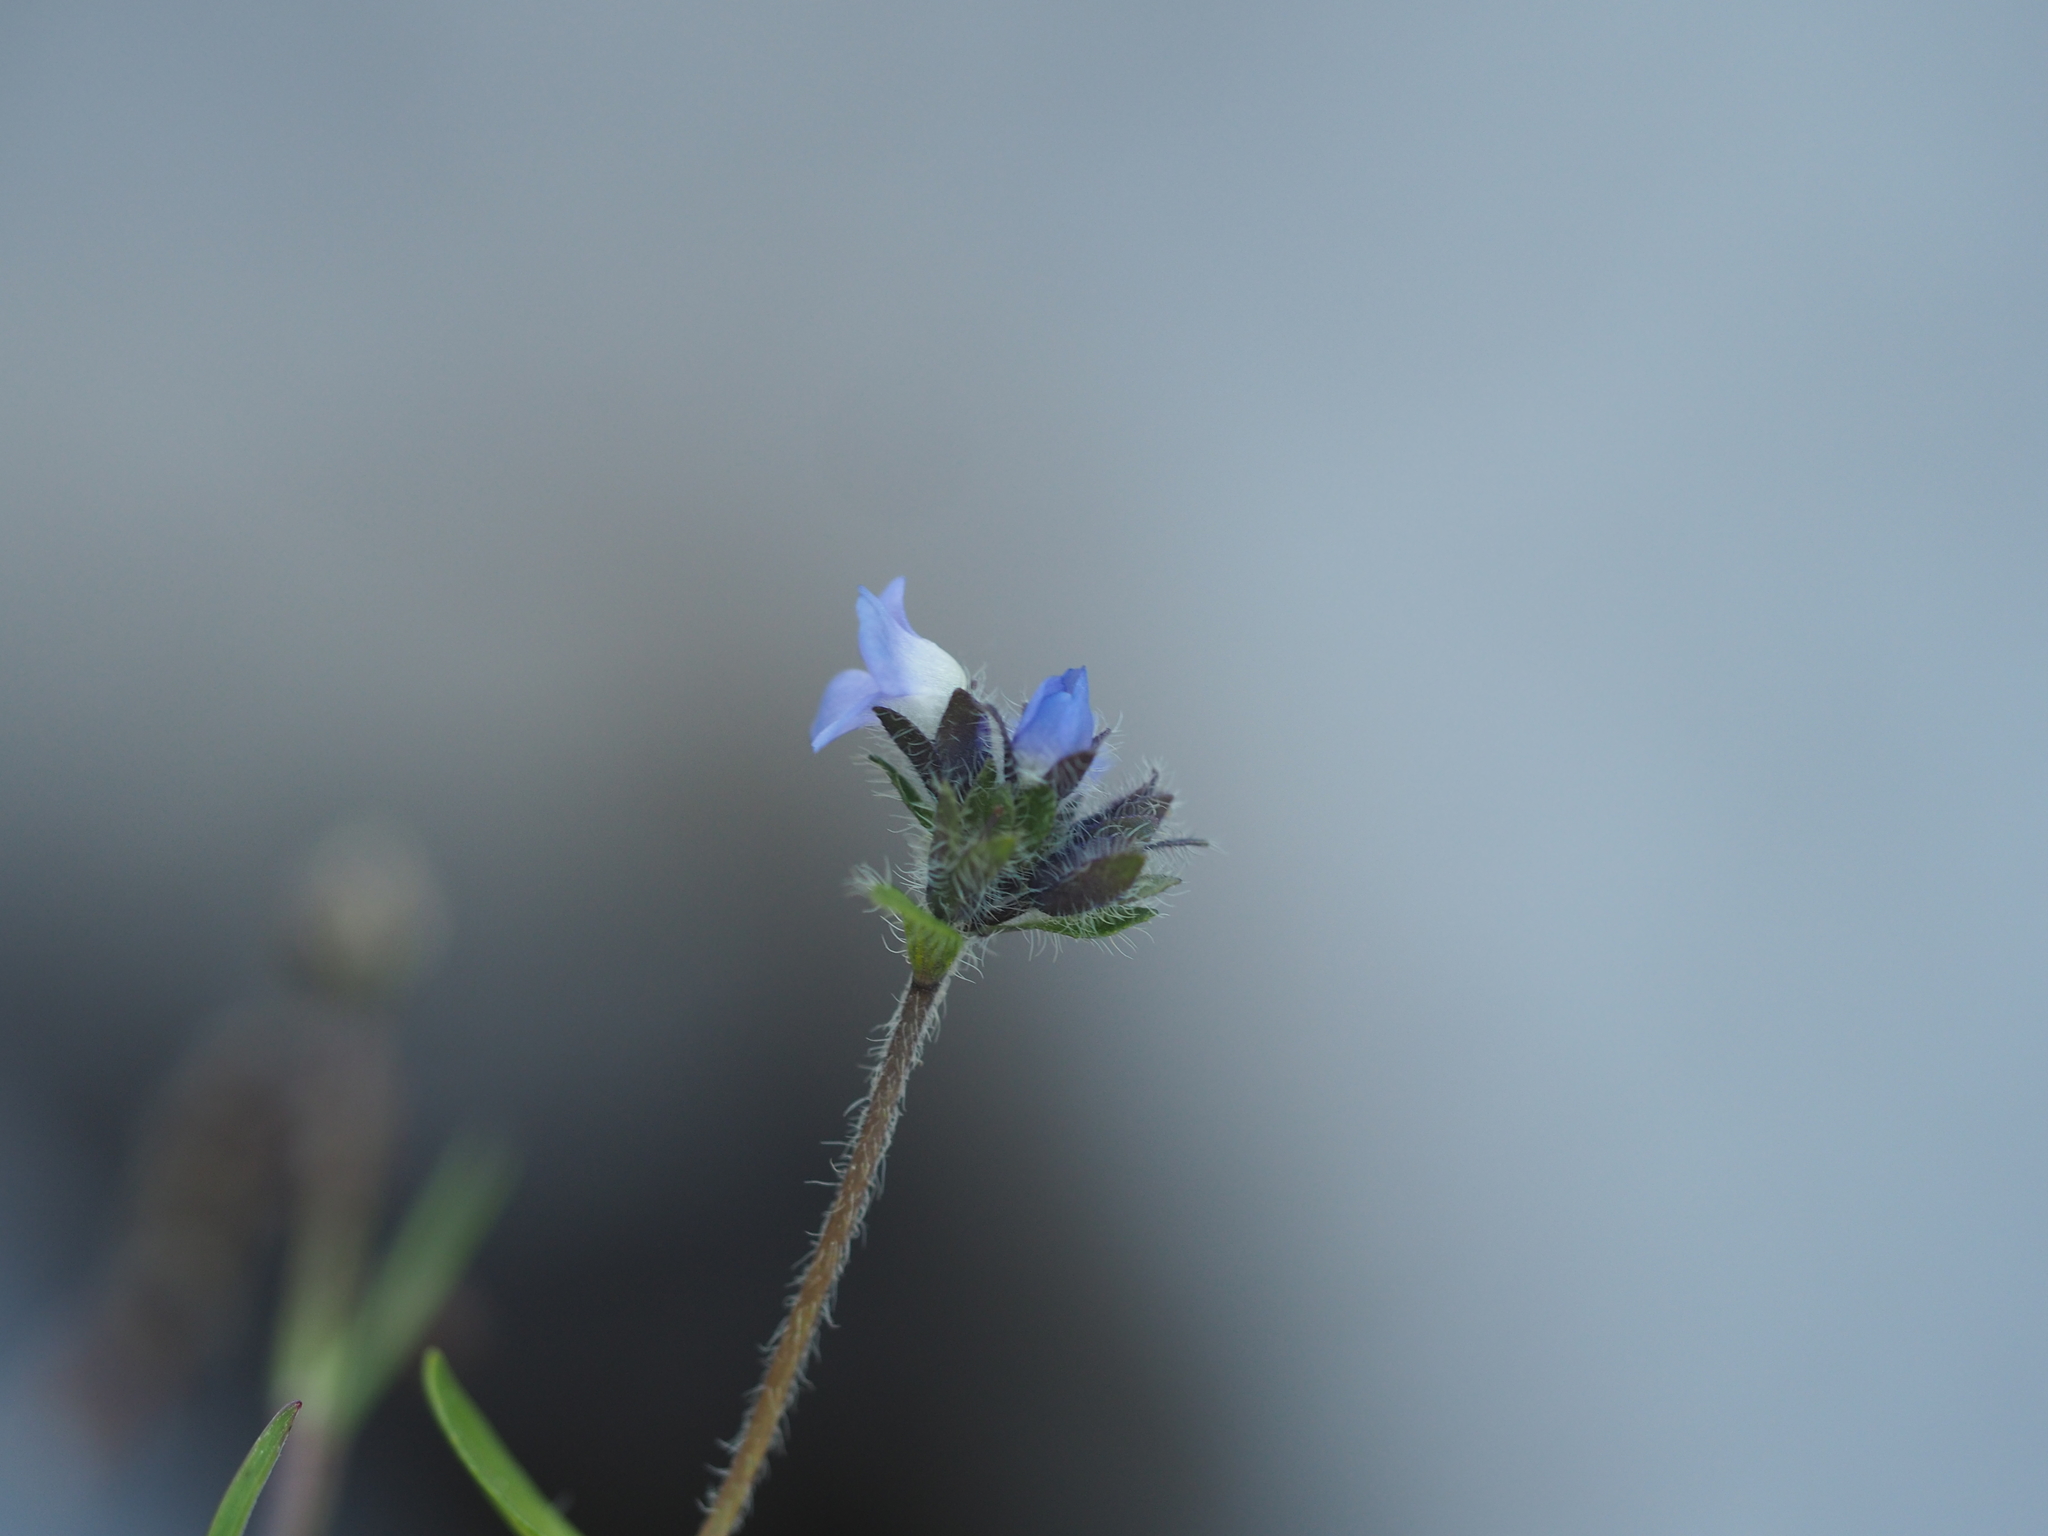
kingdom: Plantae
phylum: Tracheophyta
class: Magnoliopsida
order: Lamiales
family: Plantaginaceae
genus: Veronica
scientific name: Veronica alpina
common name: Alpine speedwell
